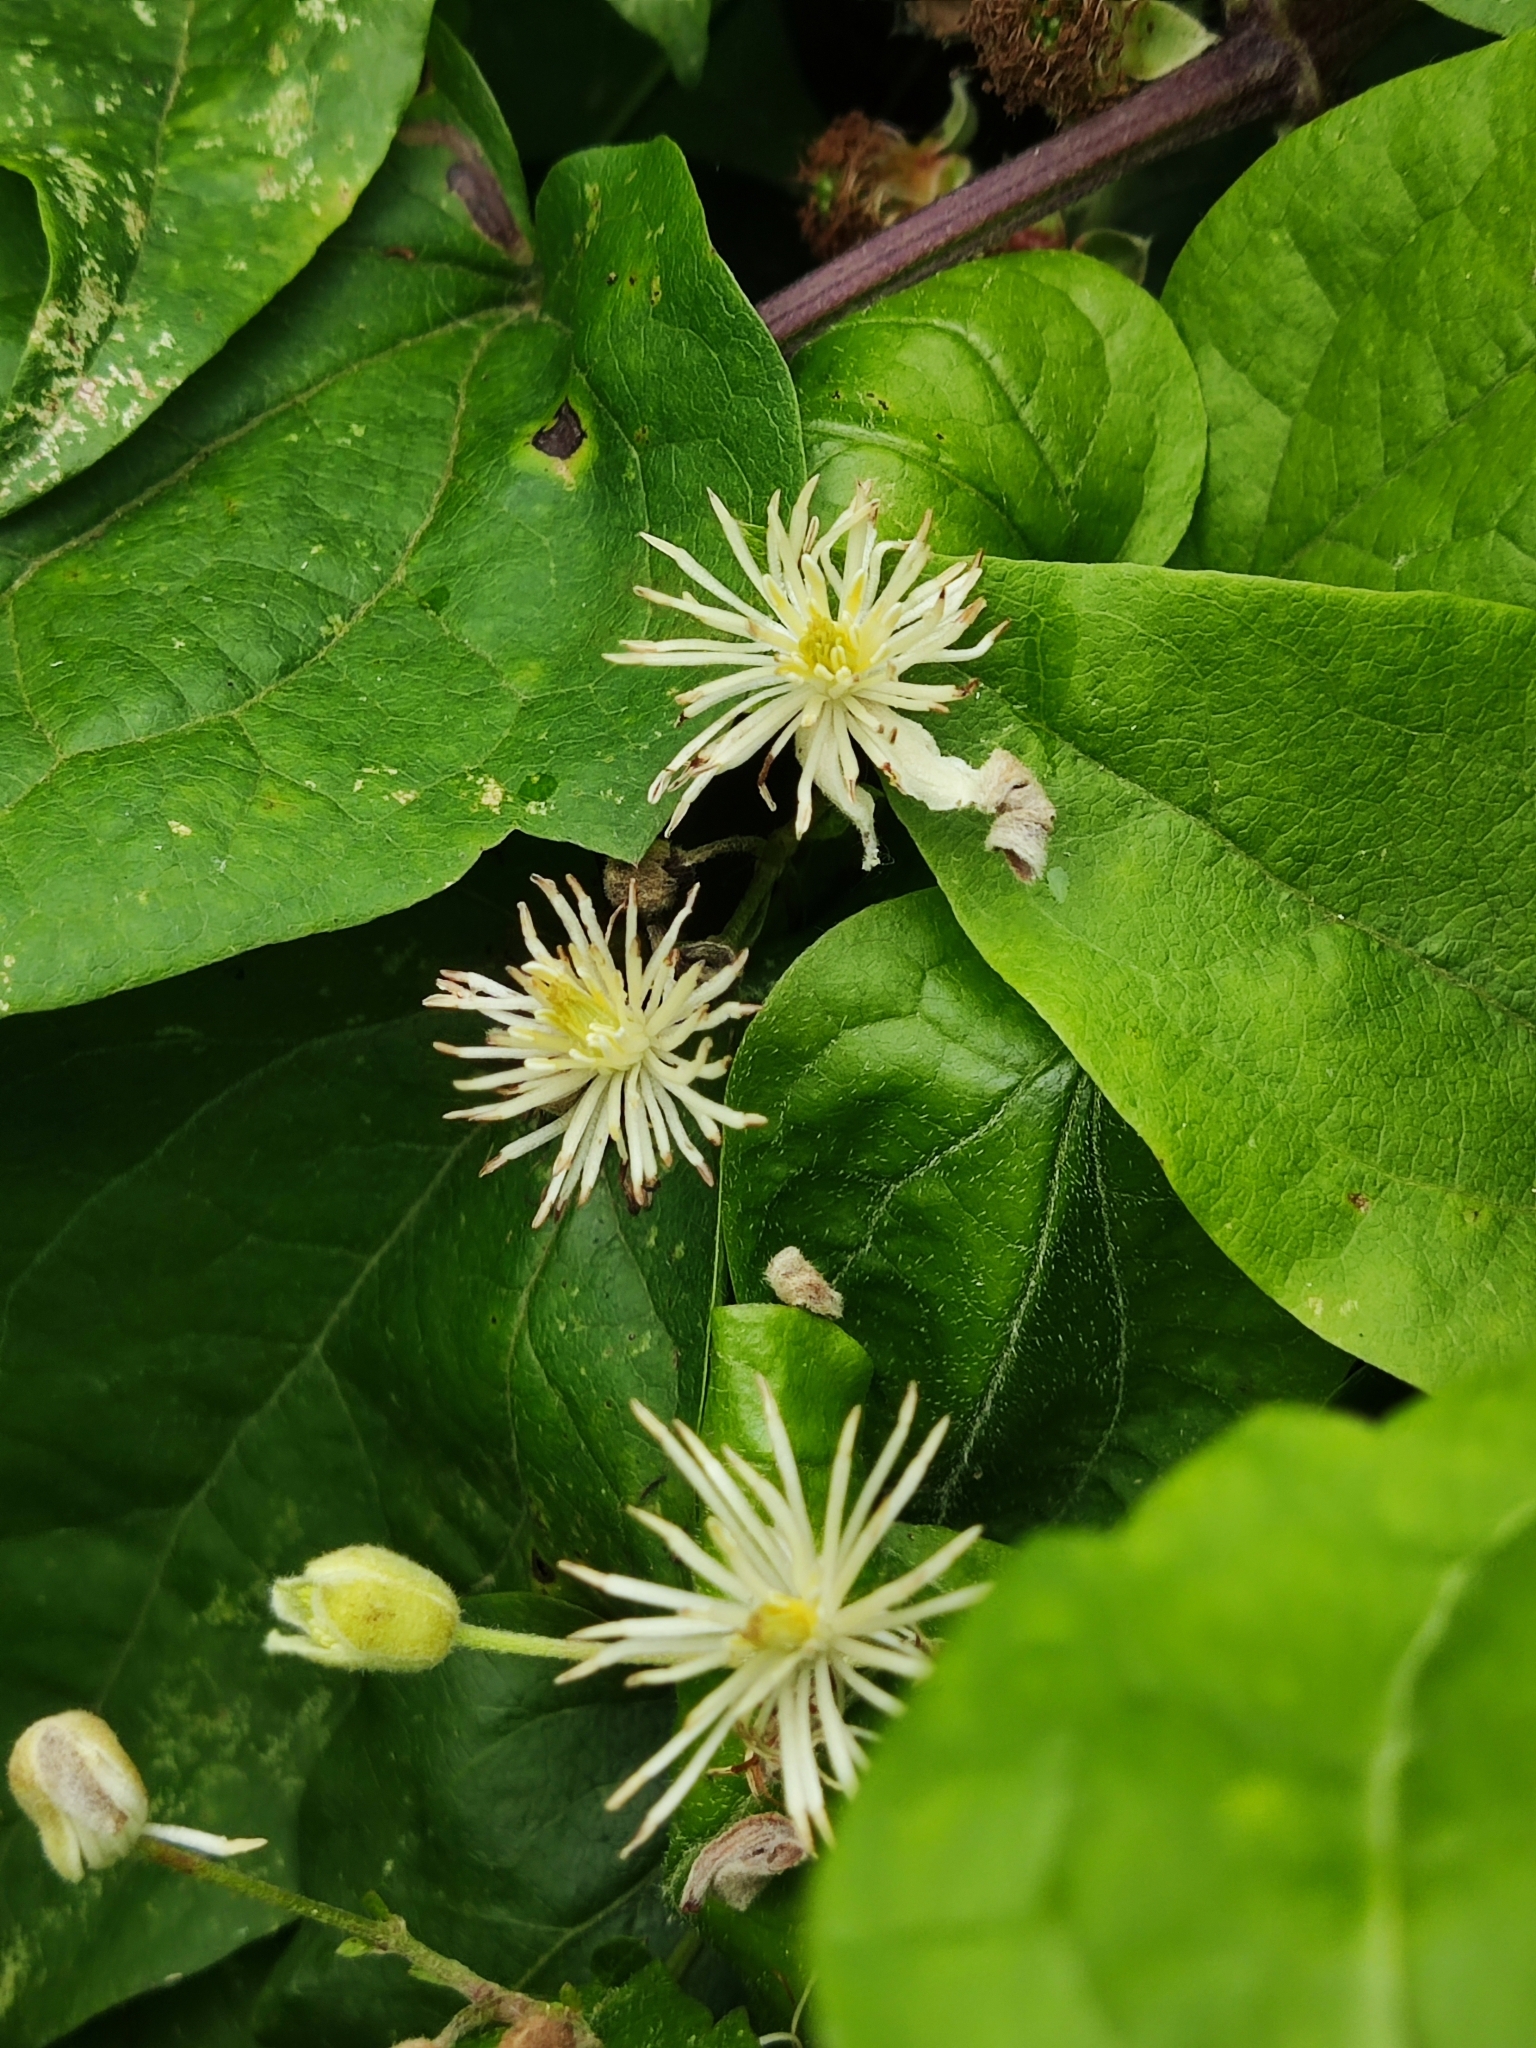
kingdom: Plantae
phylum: Tracheophyta
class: Magnoliopsida
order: Ranunculales
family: Ranunculaceae
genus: Clematis
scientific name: Clematis vitalba
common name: Evergreen clematis
